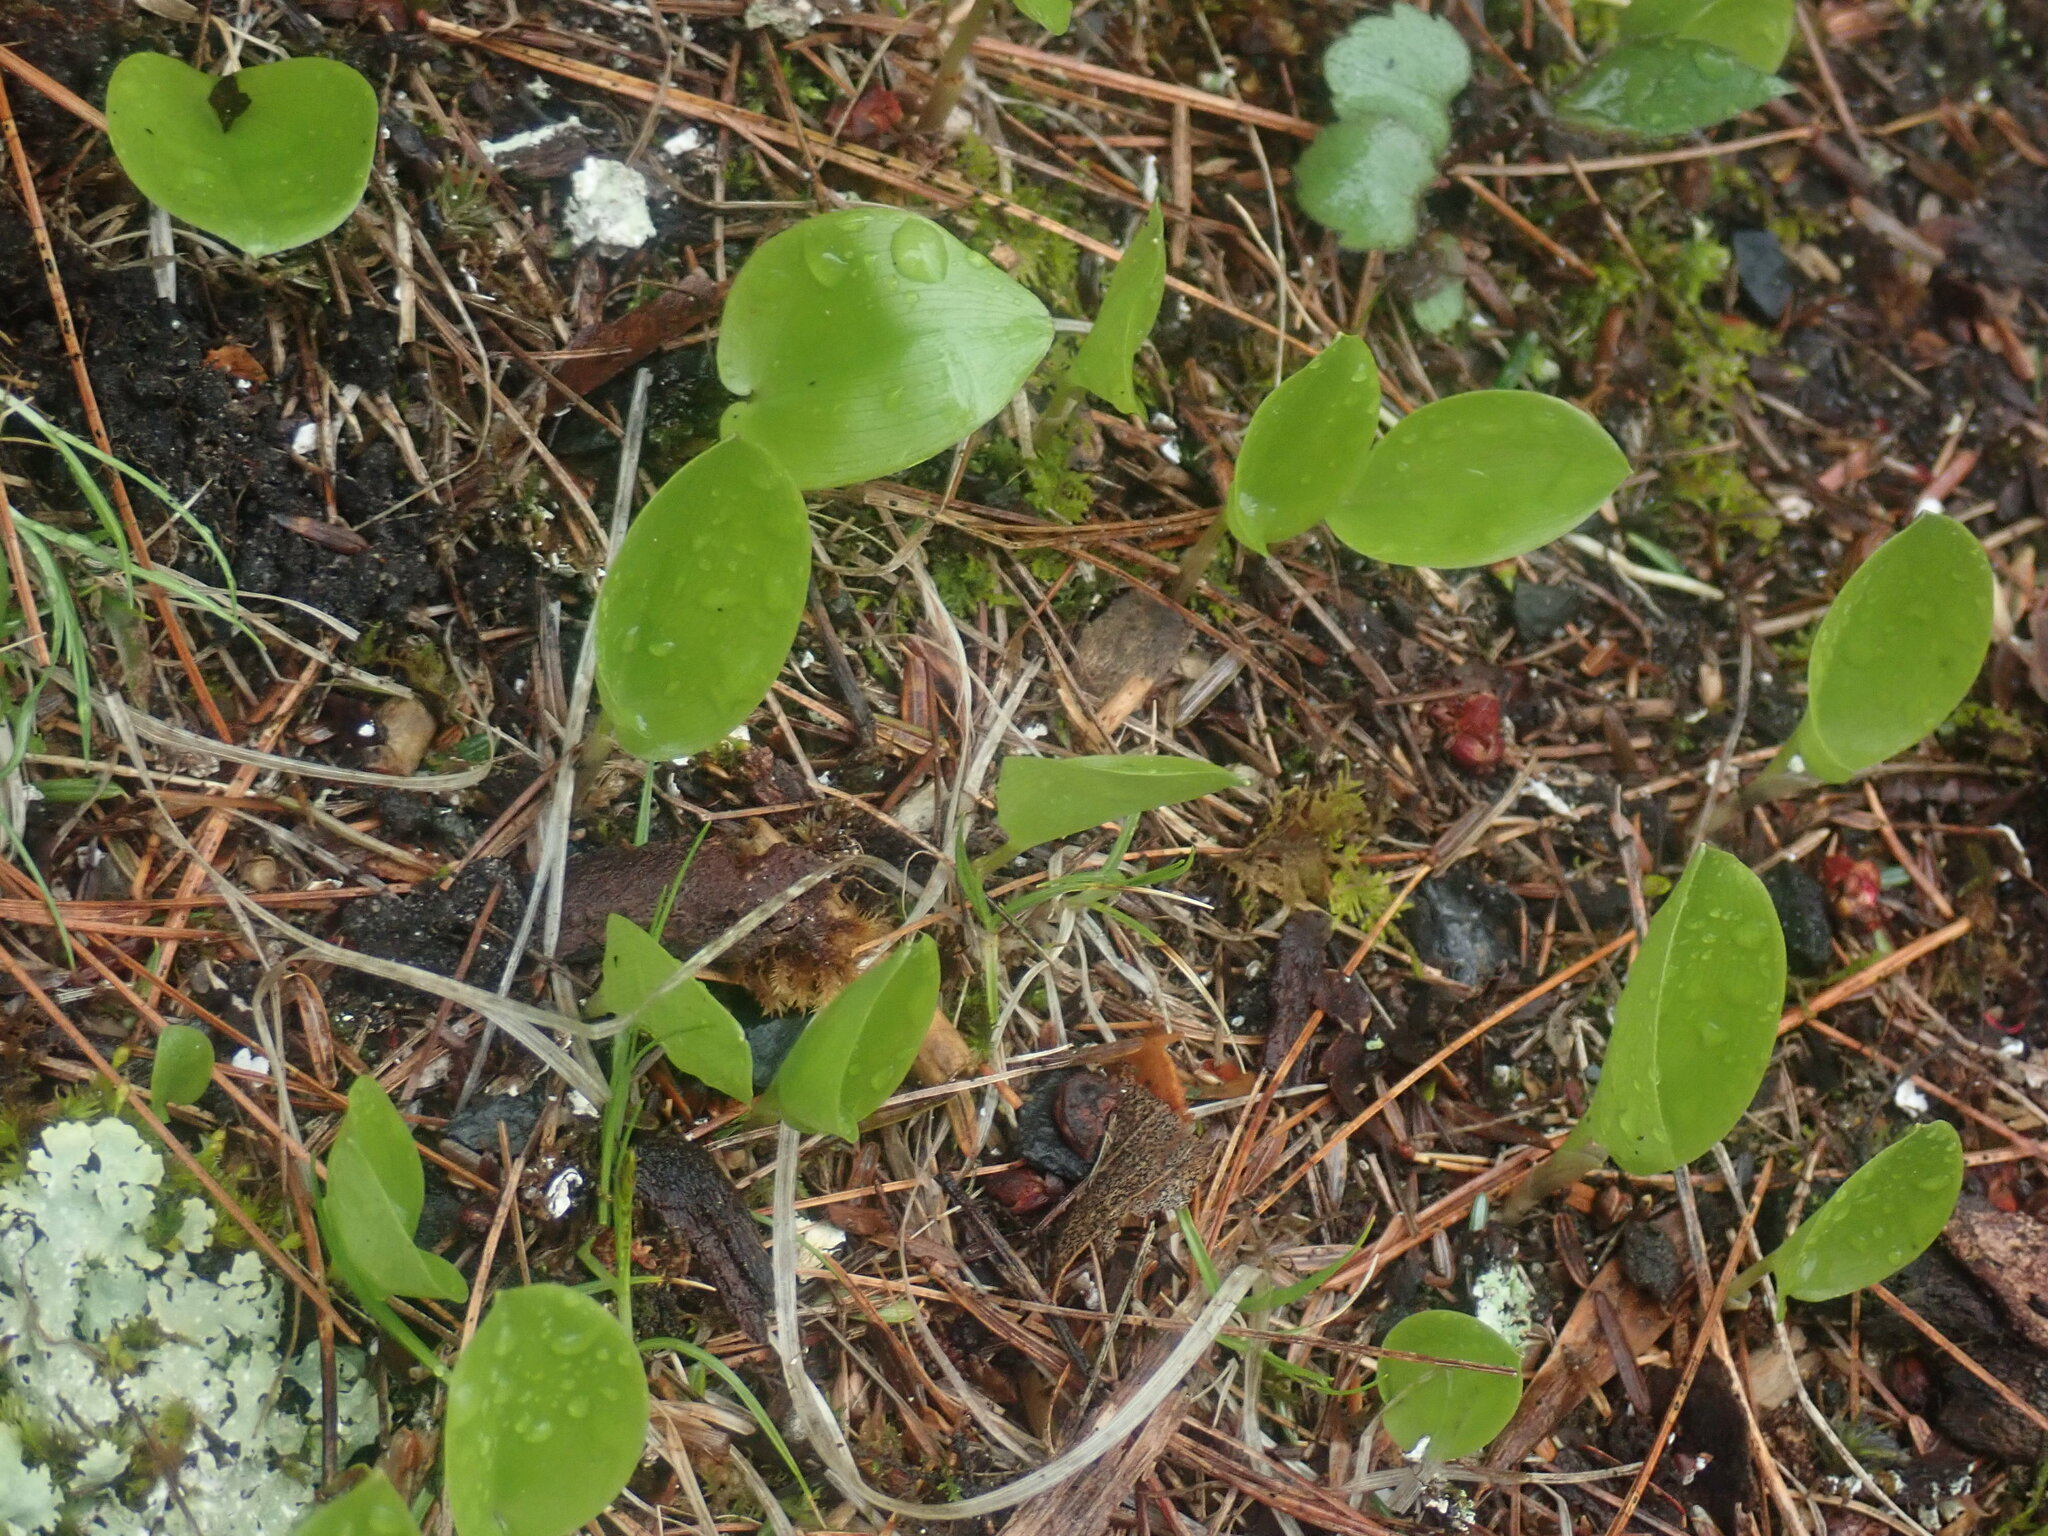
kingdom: Plantae
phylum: Tracheophyta
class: Liliopsida
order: Asparagales
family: Asparagaceae
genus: Maianthemum
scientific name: Maianthemum canadense
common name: False lily-of-the-valley
